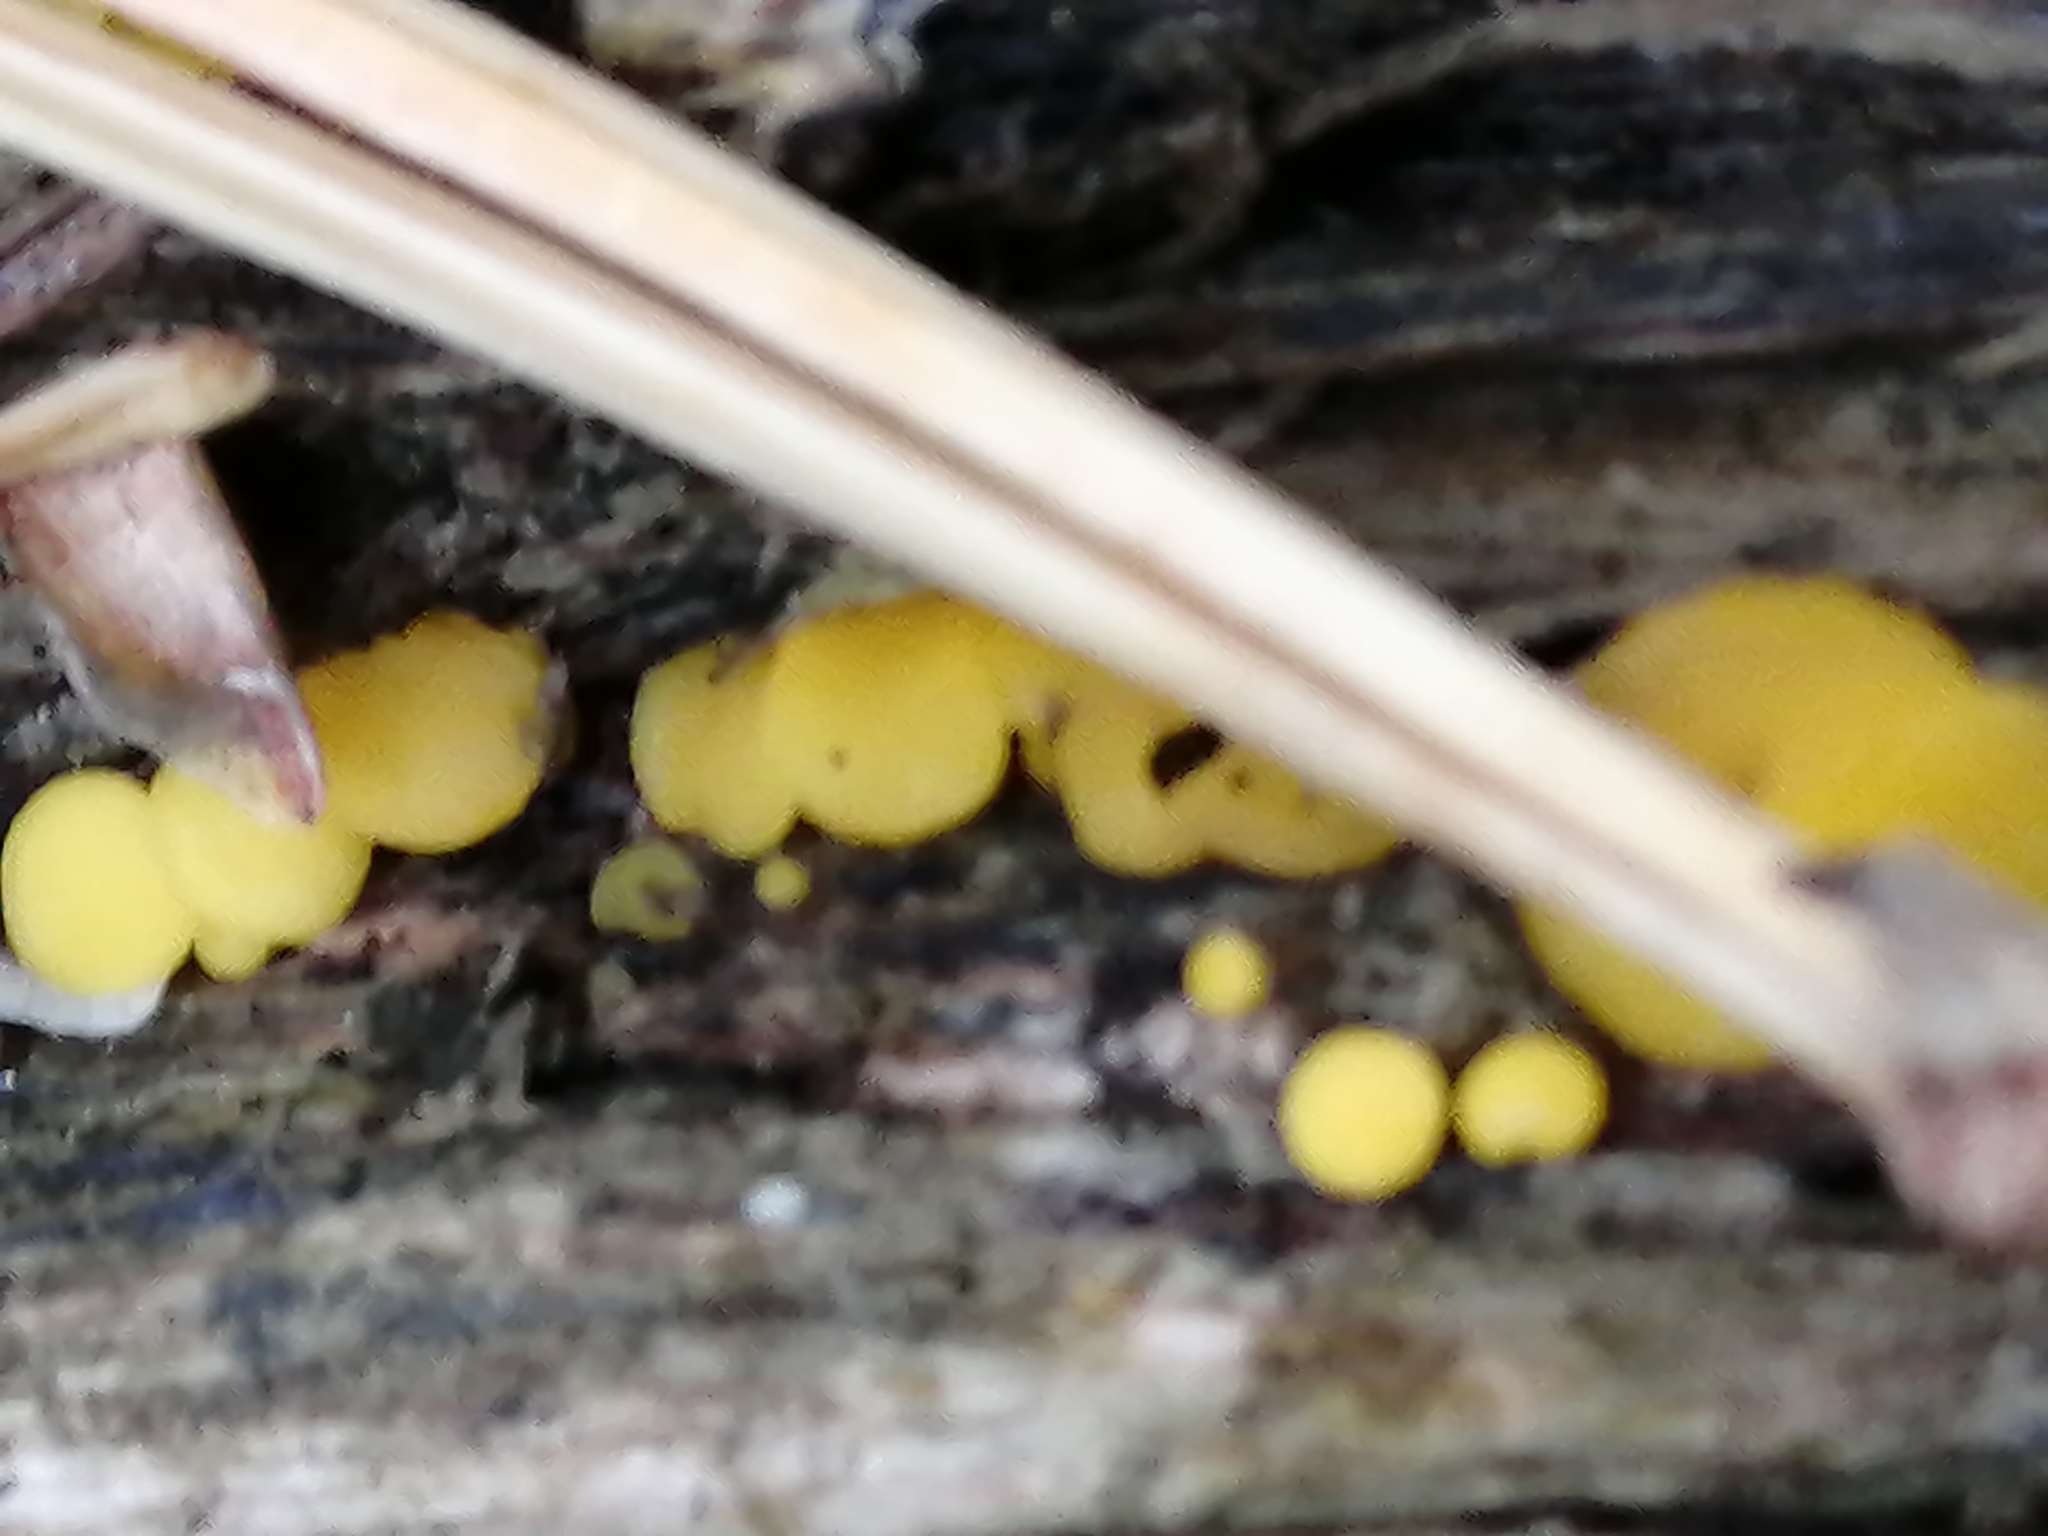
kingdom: Fungi
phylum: Ascomycota
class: Leotiomycetes
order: Helotiales
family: Pezizellaceae
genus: Calycina
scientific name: Calycina citrina
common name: Yellow fairy cups
